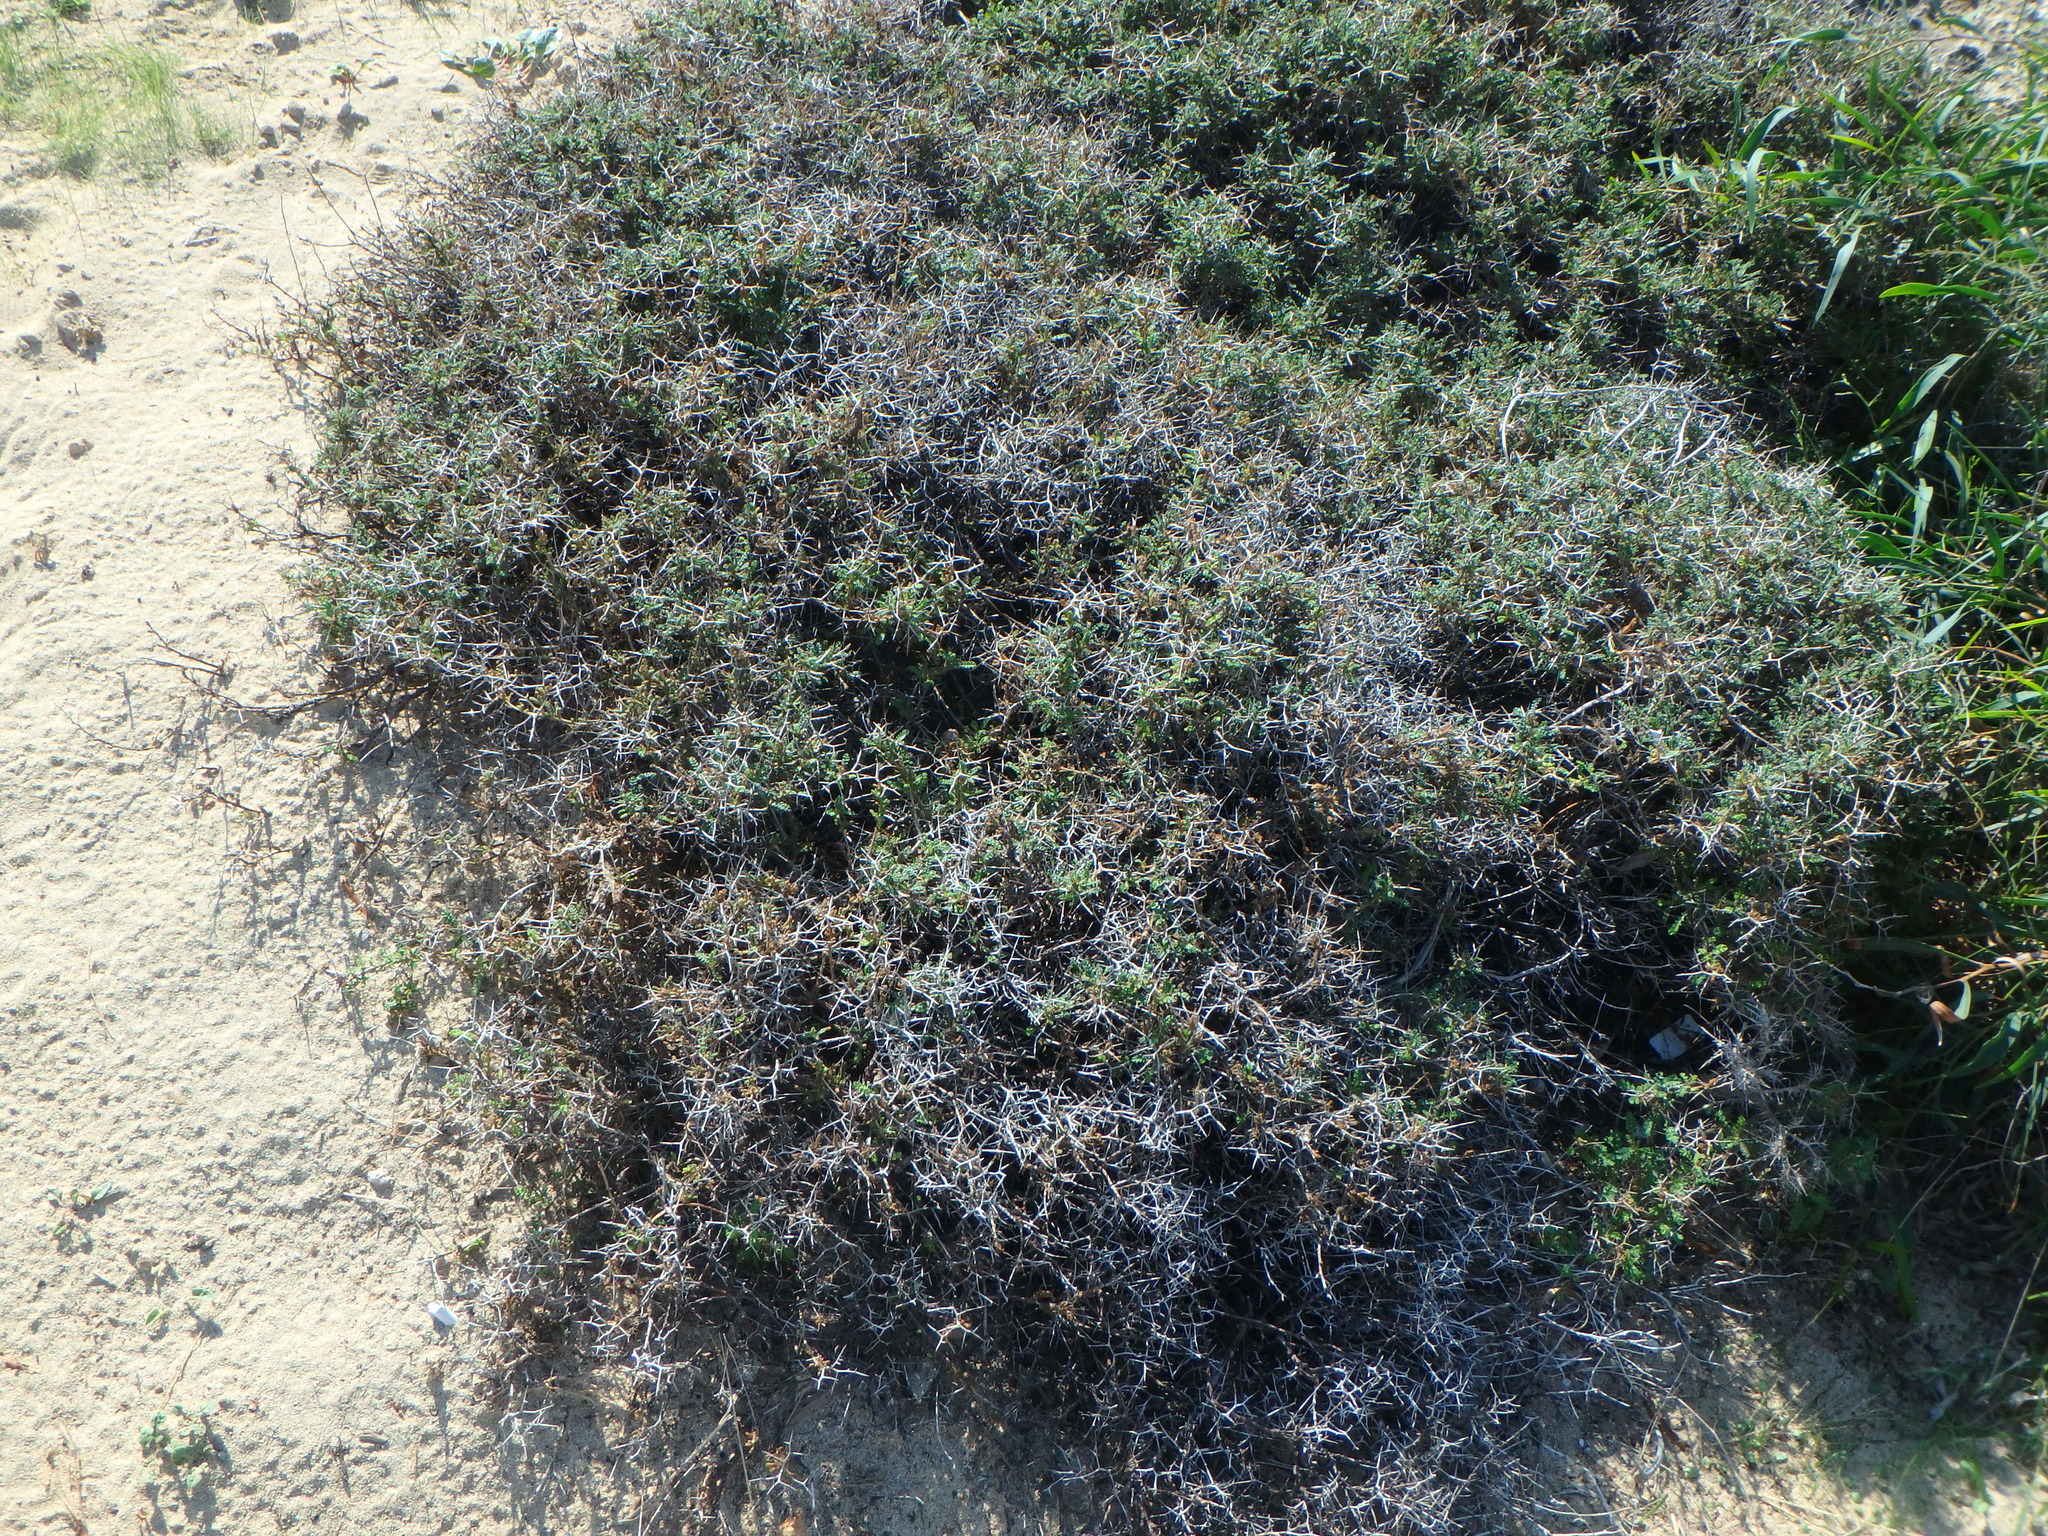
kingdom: Plantae
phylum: Tracheophyta
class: Magnoliopsida
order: Rosales
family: Rosaceae
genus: Sarcopoterium
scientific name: Sarcopoterium spinosum
